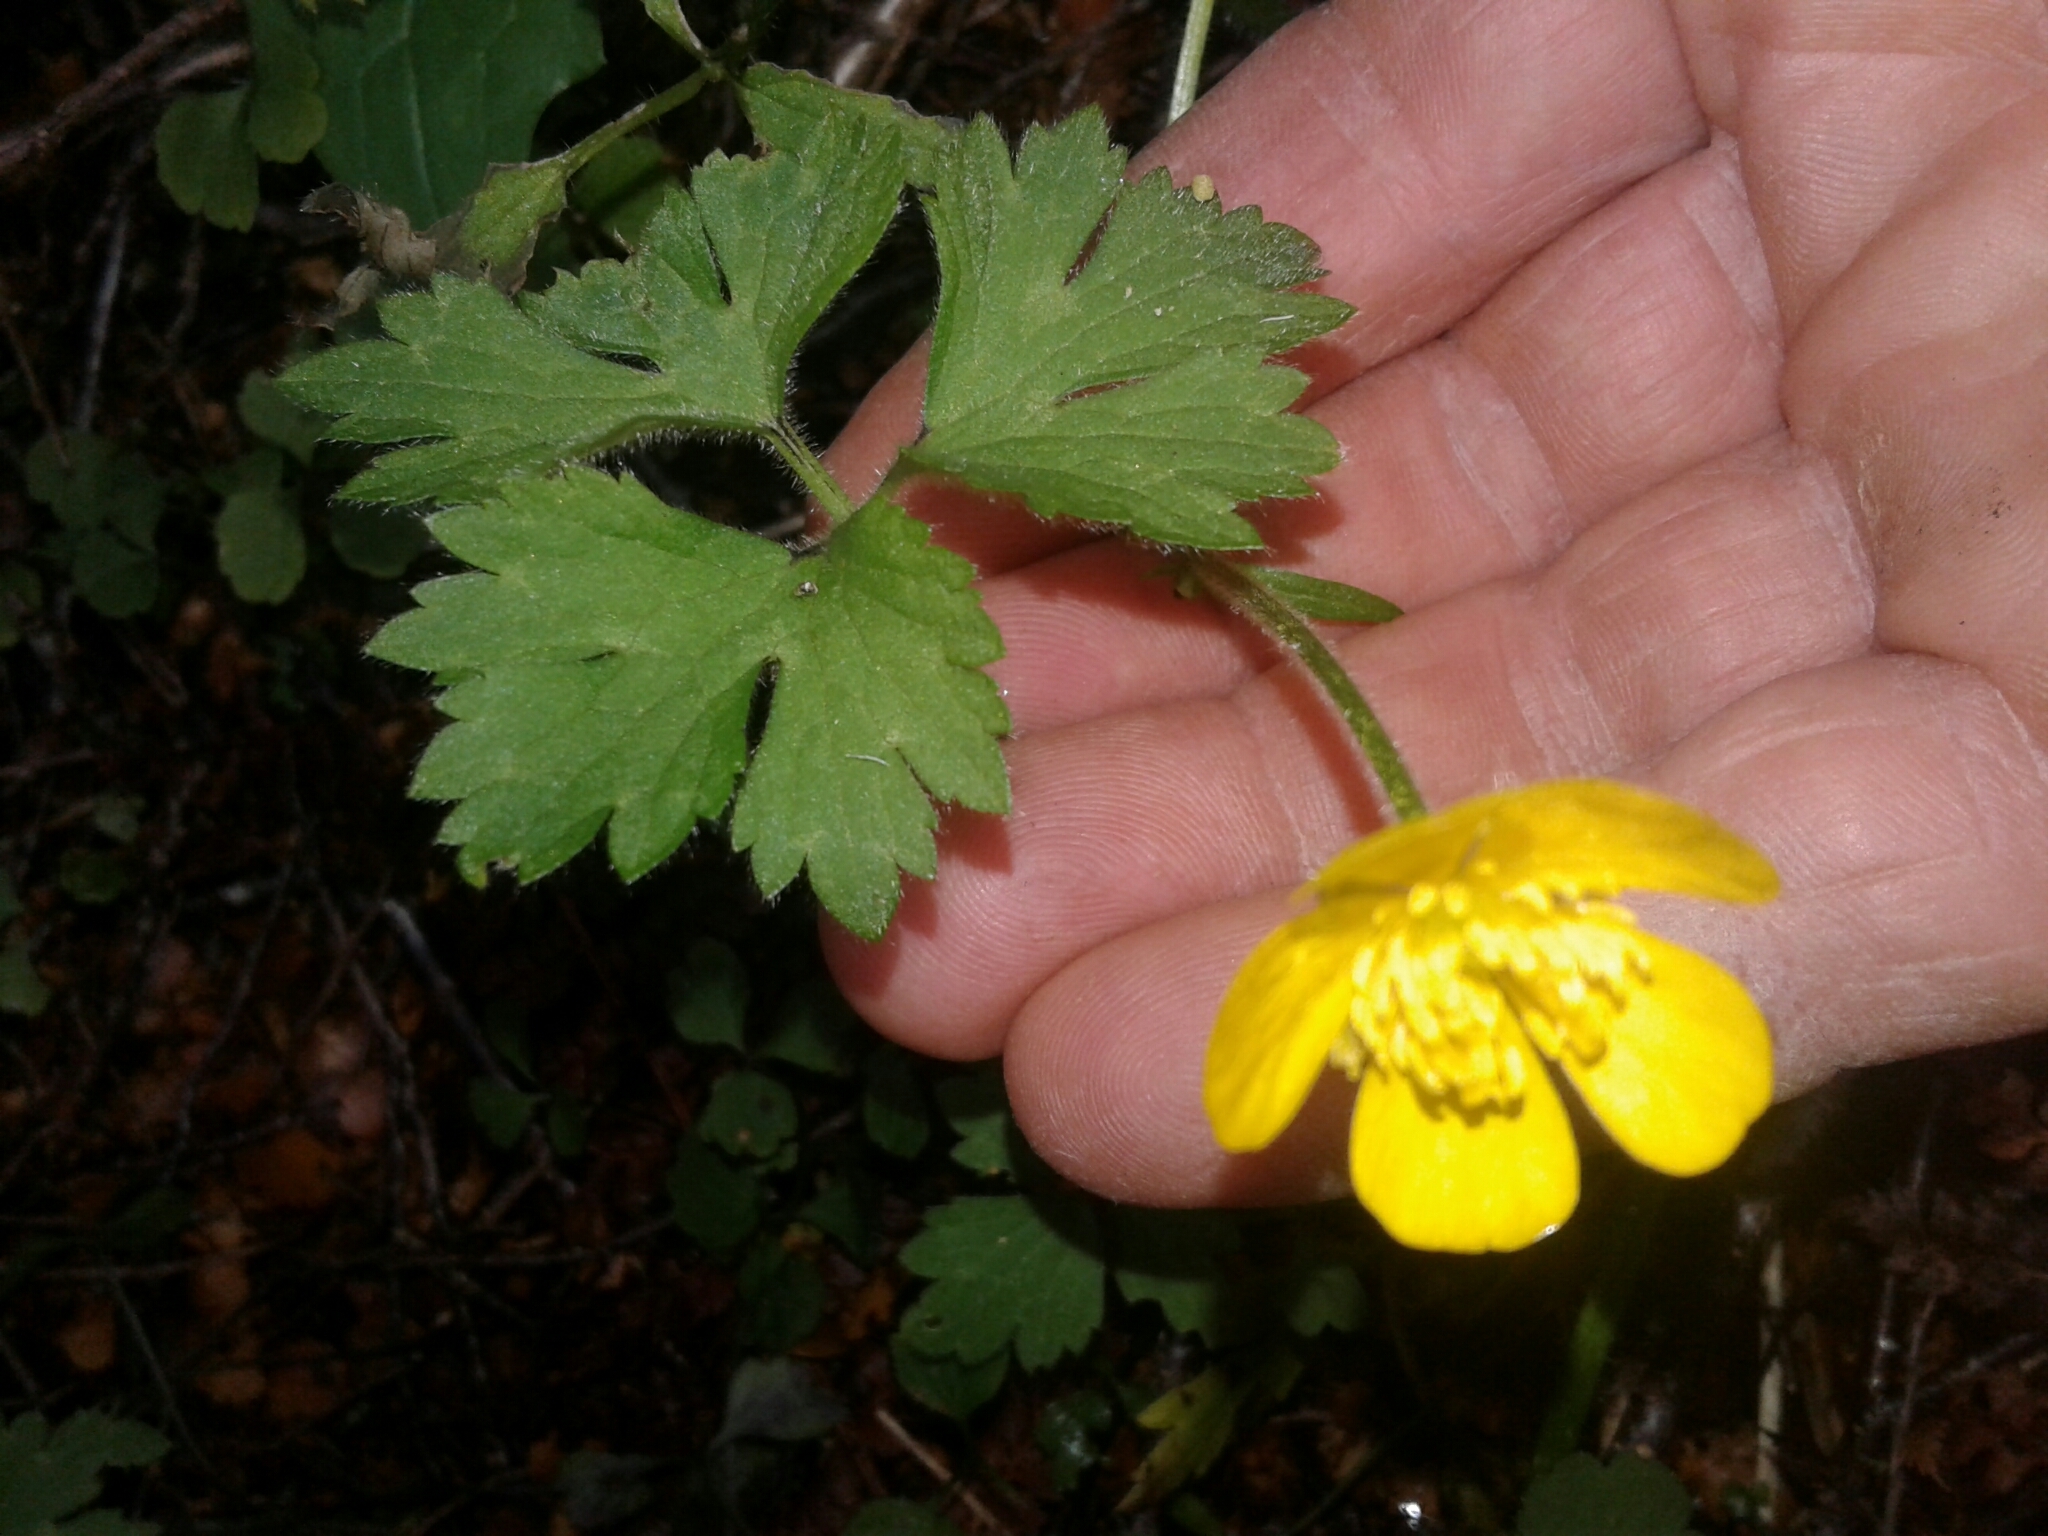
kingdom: Plantae
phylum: Tracheophyta
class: Magnoliopsida
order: Ranunculales
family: Ranunculaceae
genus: Ranunculus
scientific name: Ranunculus repens
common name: Creeping buttercup
